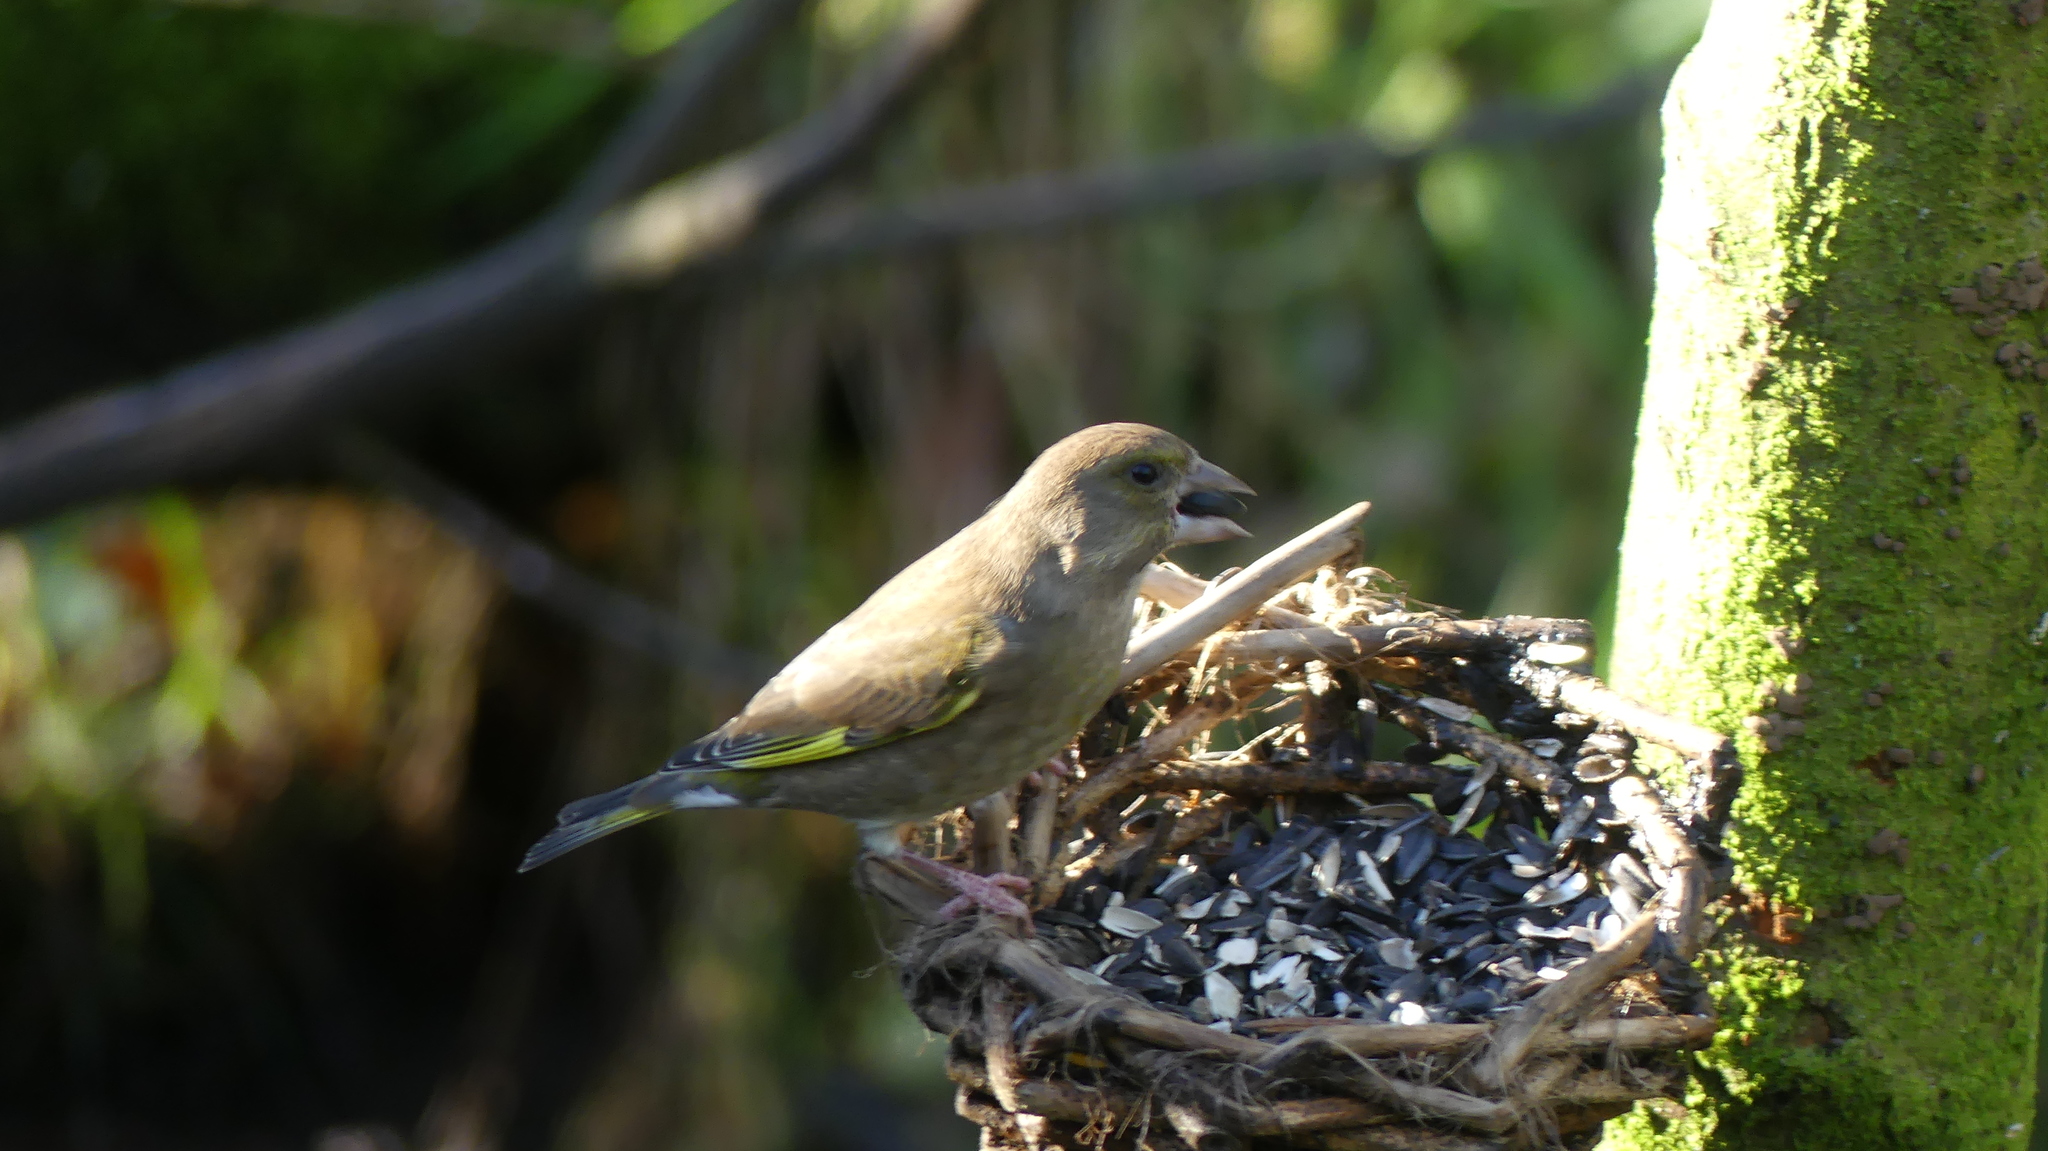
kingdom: Plantae
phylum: Tracheophyta
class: Liliopsida
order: Poales
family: Poaceae
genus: Chloris
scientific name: Chloris chloris
